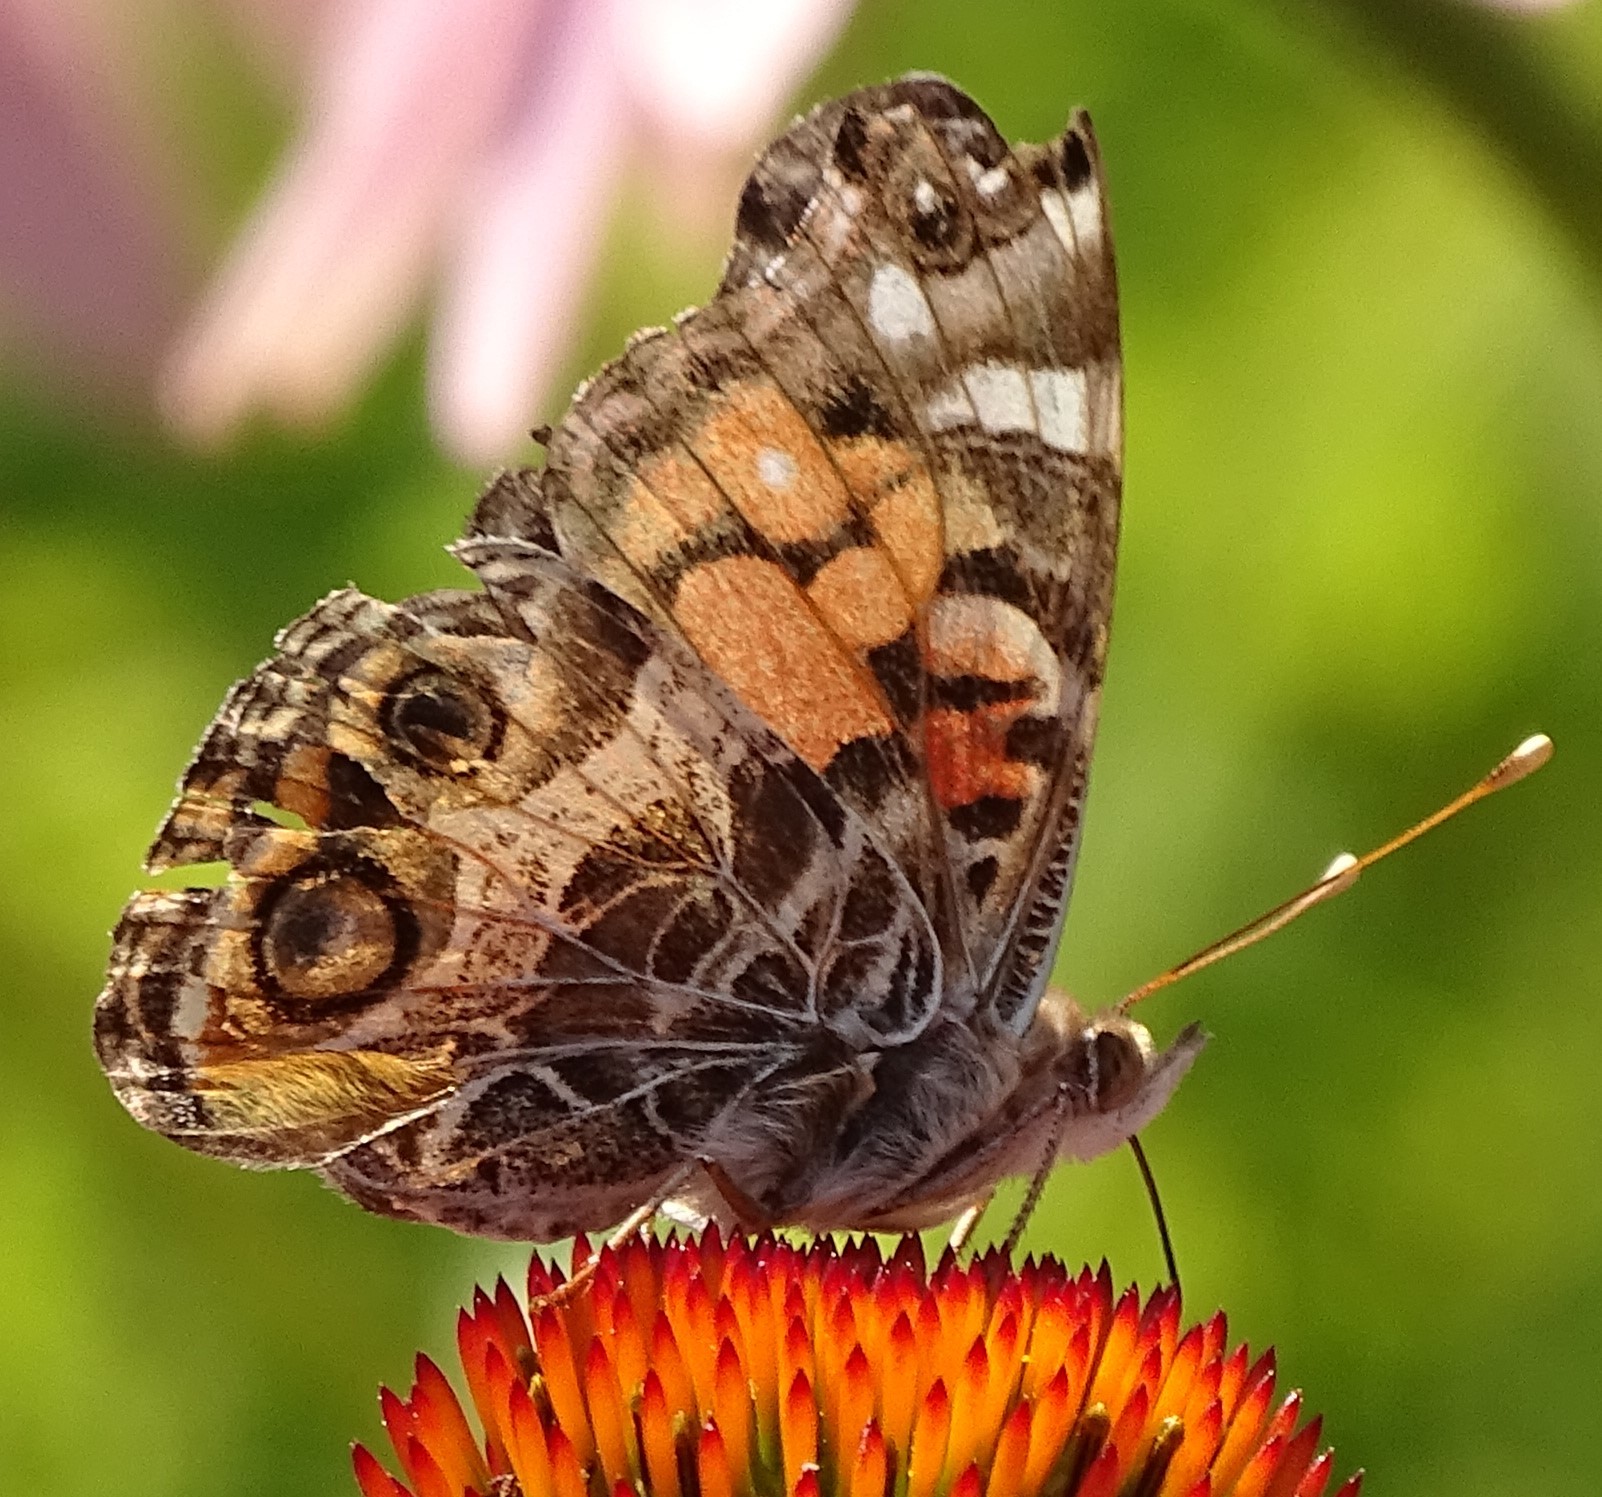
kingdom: Animalia
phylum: Arthropoda
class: Insecta
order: Lepidoptera
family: Nymphalidae
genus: Vanessa
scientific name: Vanessa virginiensis
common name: American lady
